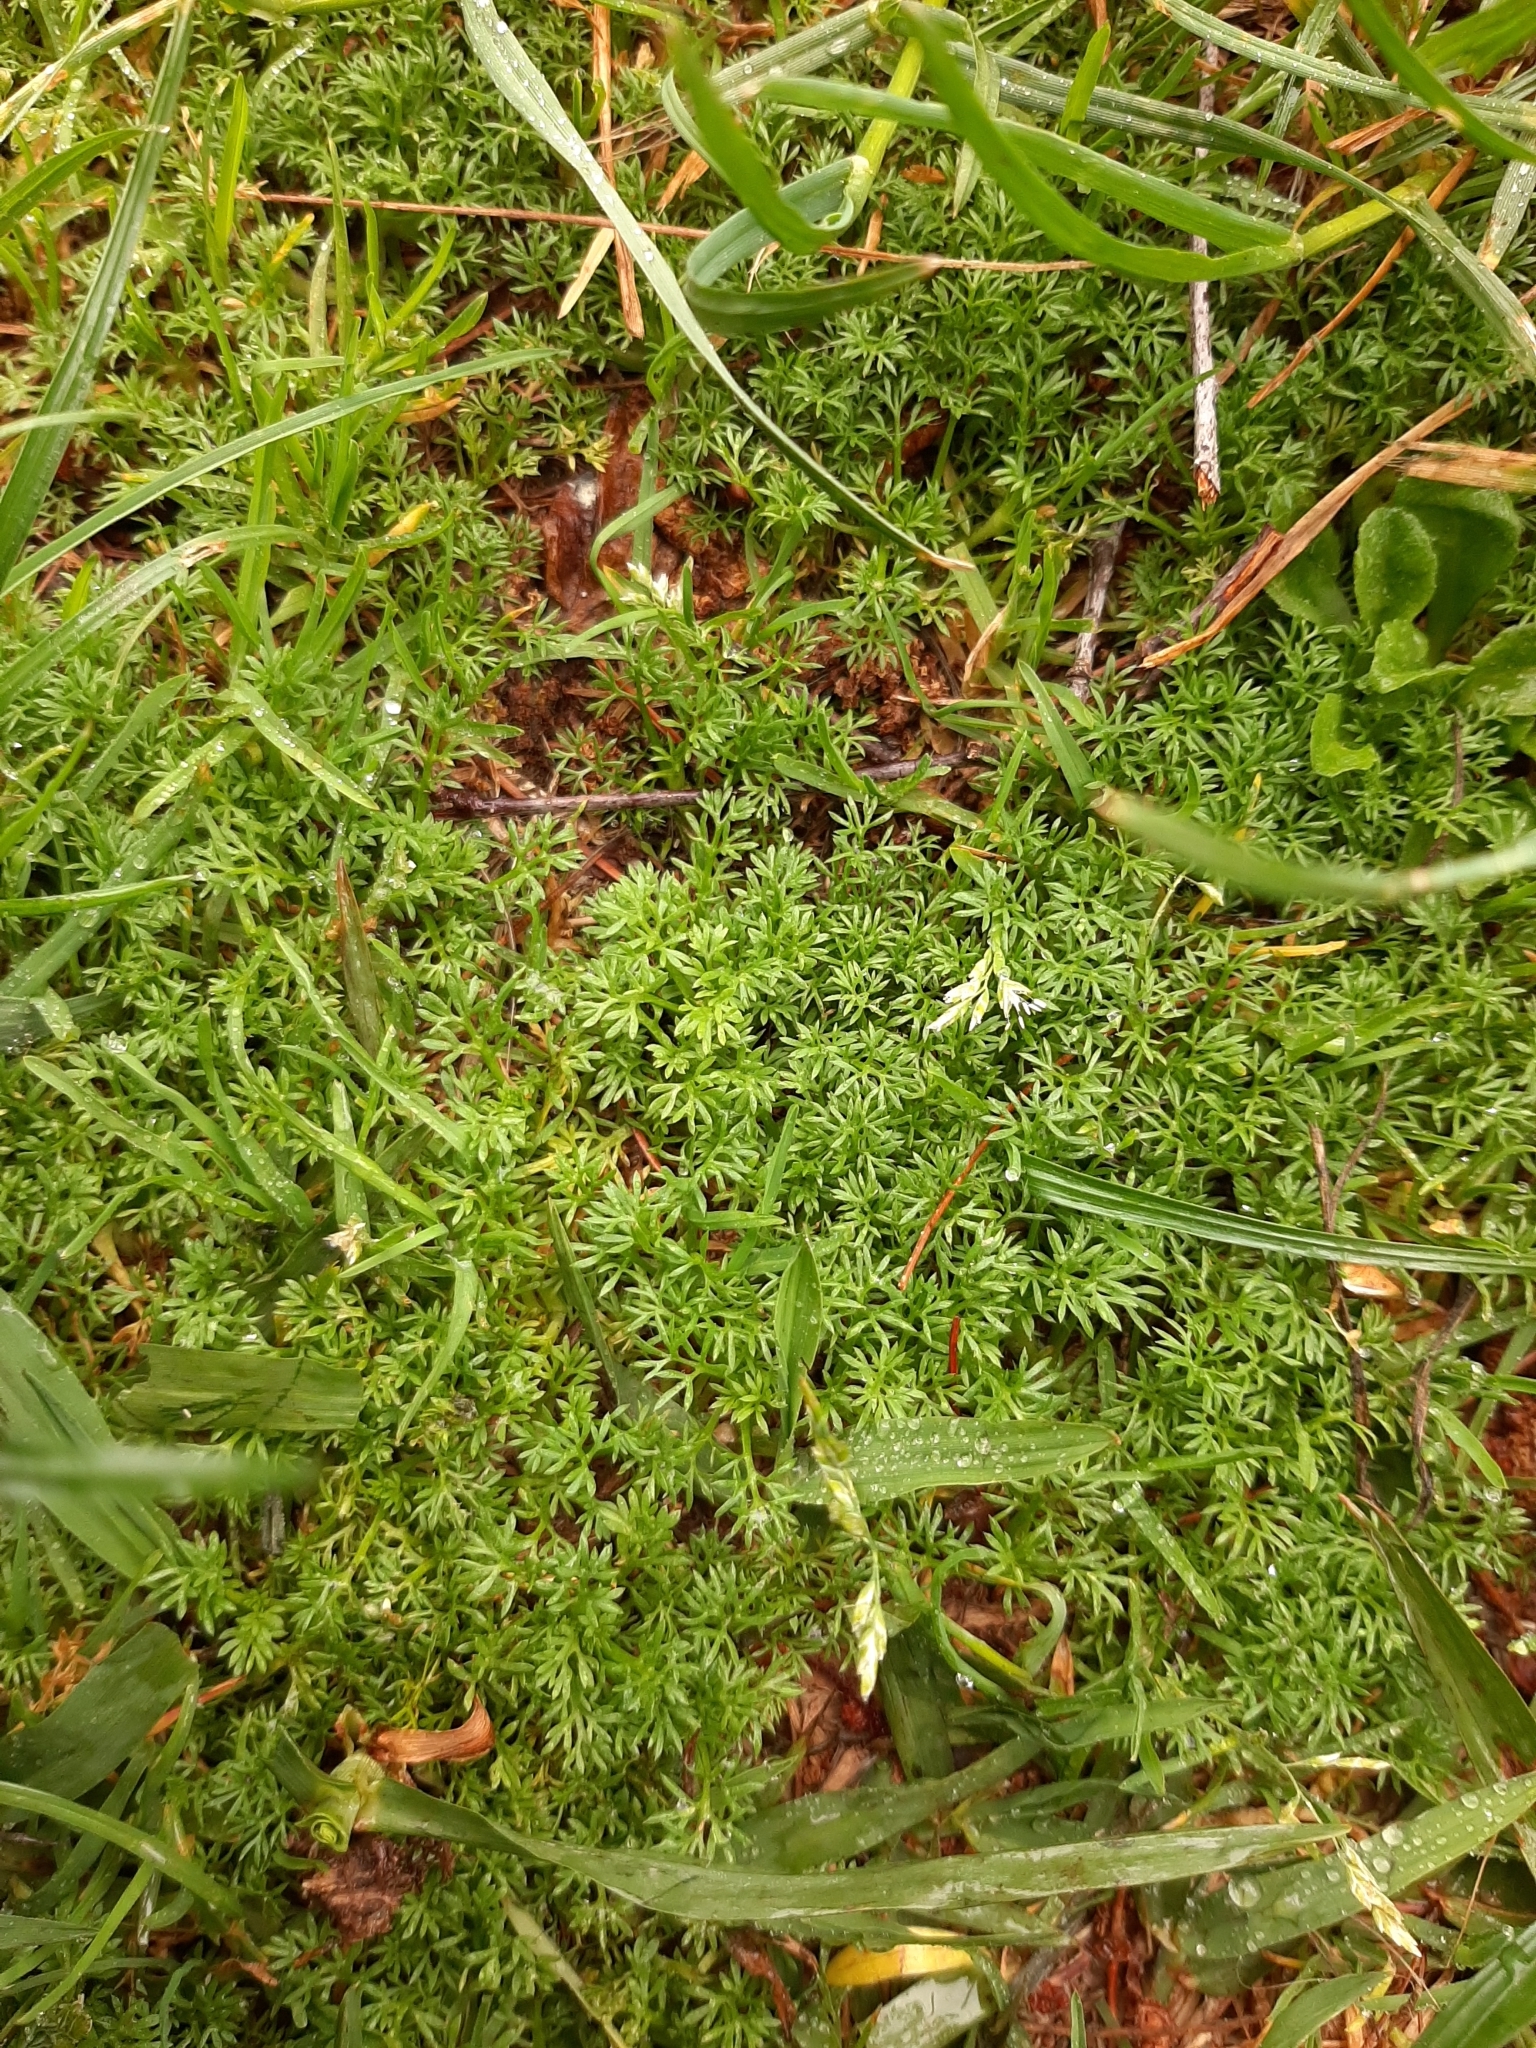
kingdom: Plantae
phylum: Tracheophyta
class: Magnoliopsida
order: Asterales
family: Asteraceae
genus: Soliva
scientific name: Soliva sessilis
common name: Field burrweed
